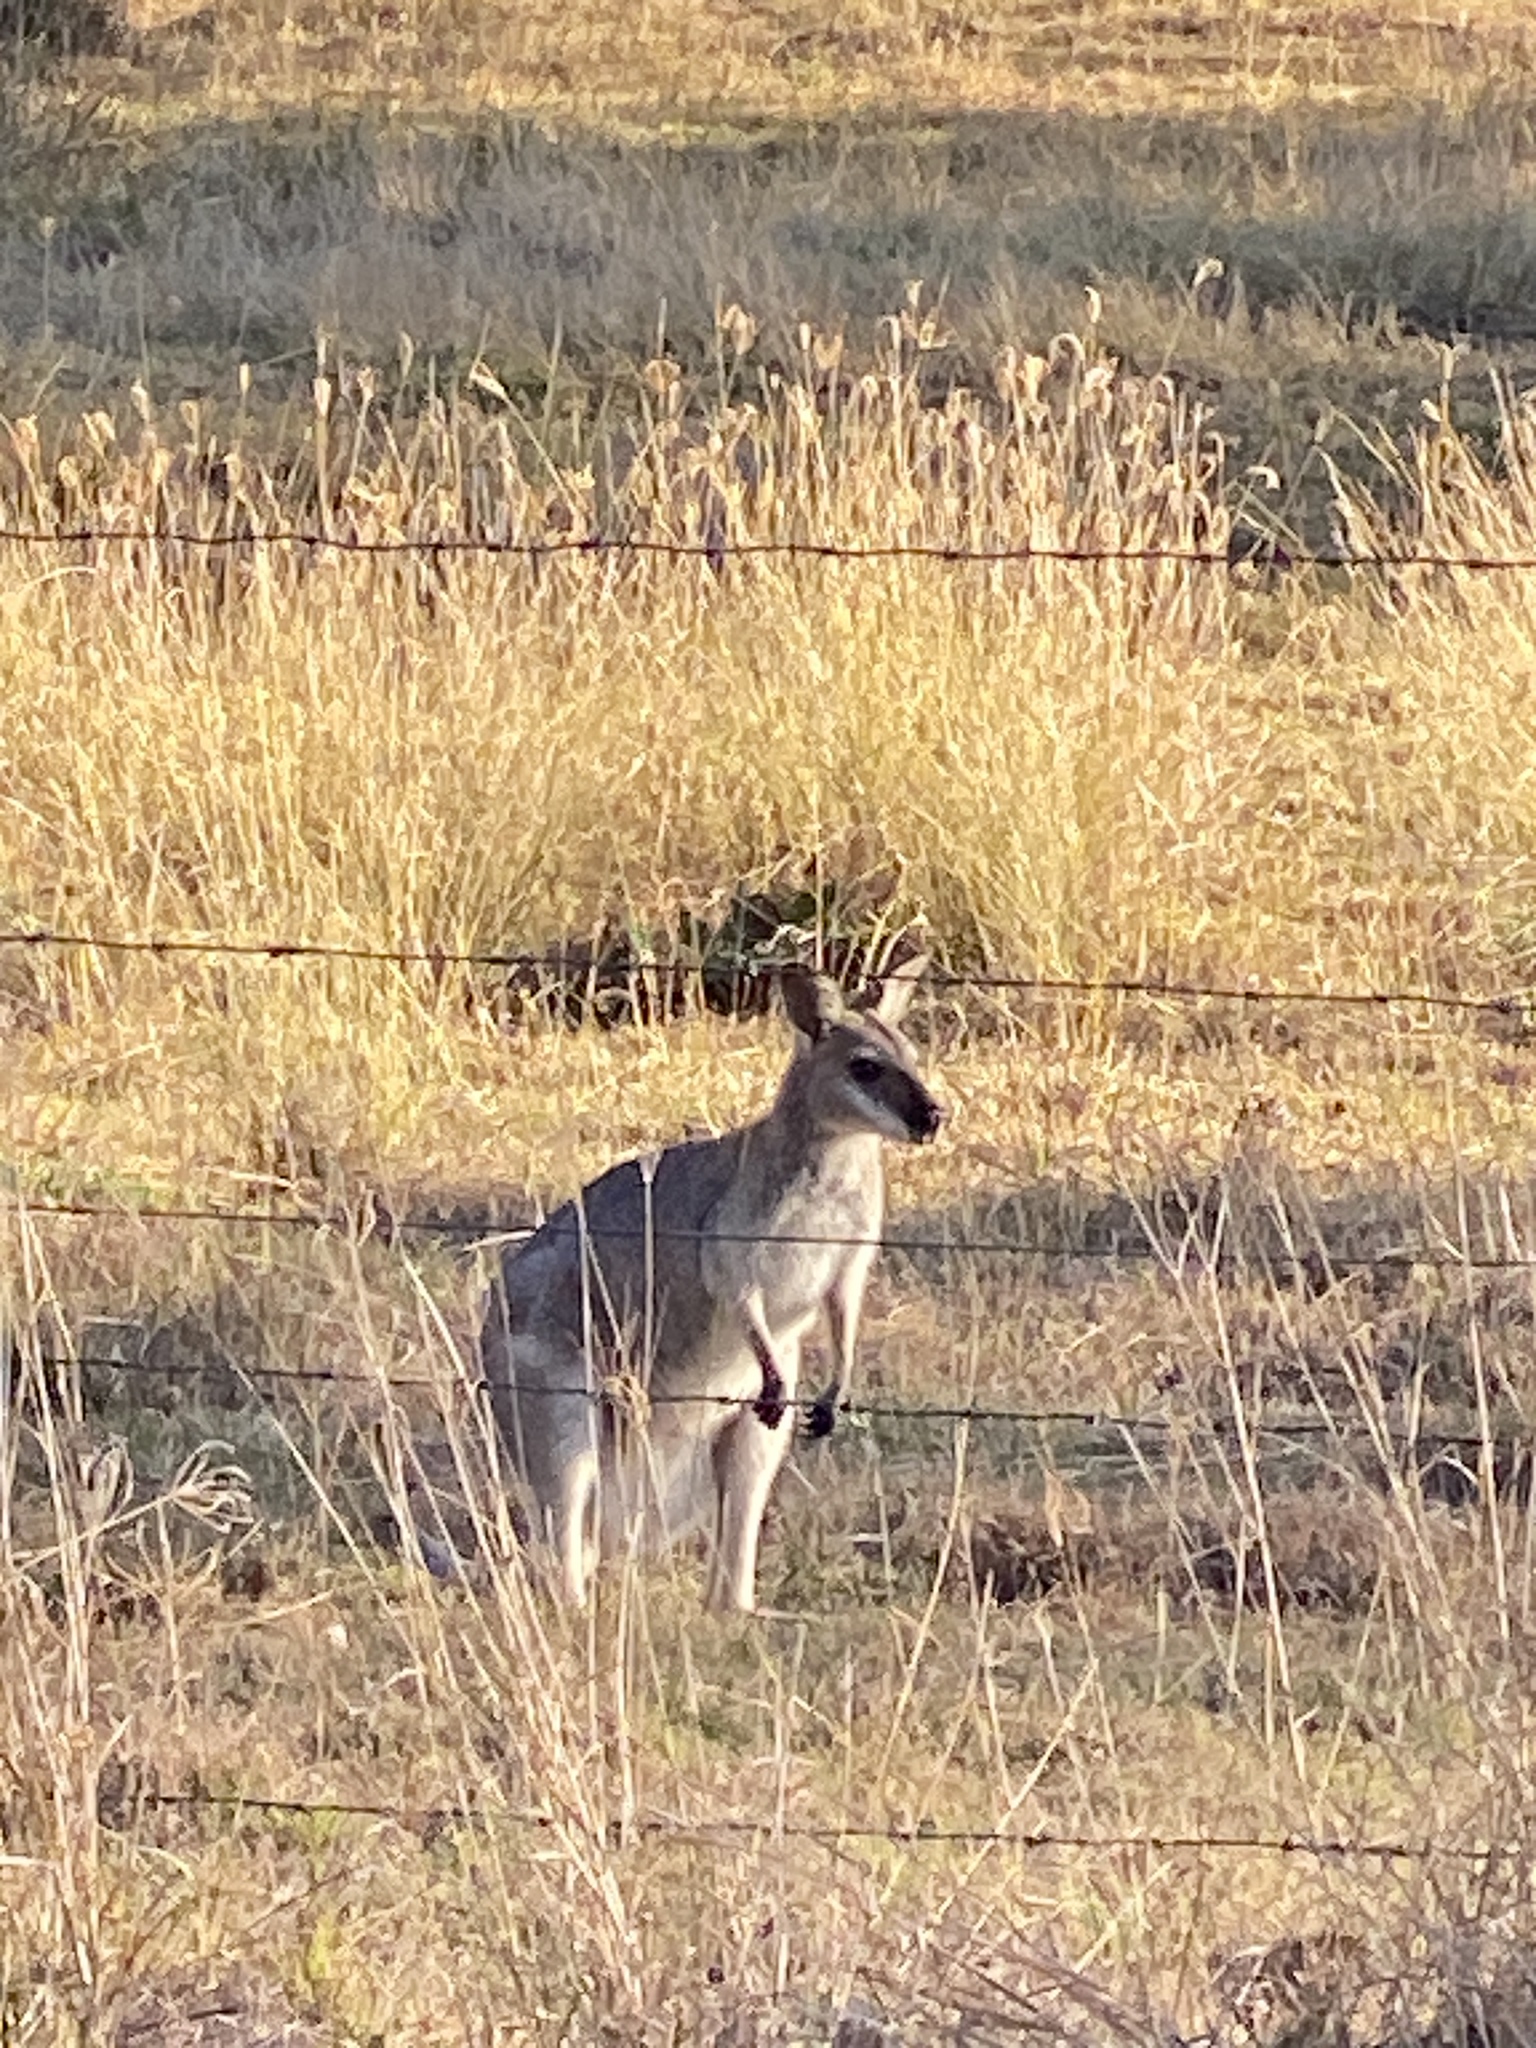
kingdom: Animalia
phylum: Chordata
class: Mammalia
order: Diprotodontia
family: Macropodidae
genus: Notamacropus
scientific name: Notamacropus rufogriseus
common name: Red-necked wallaby
